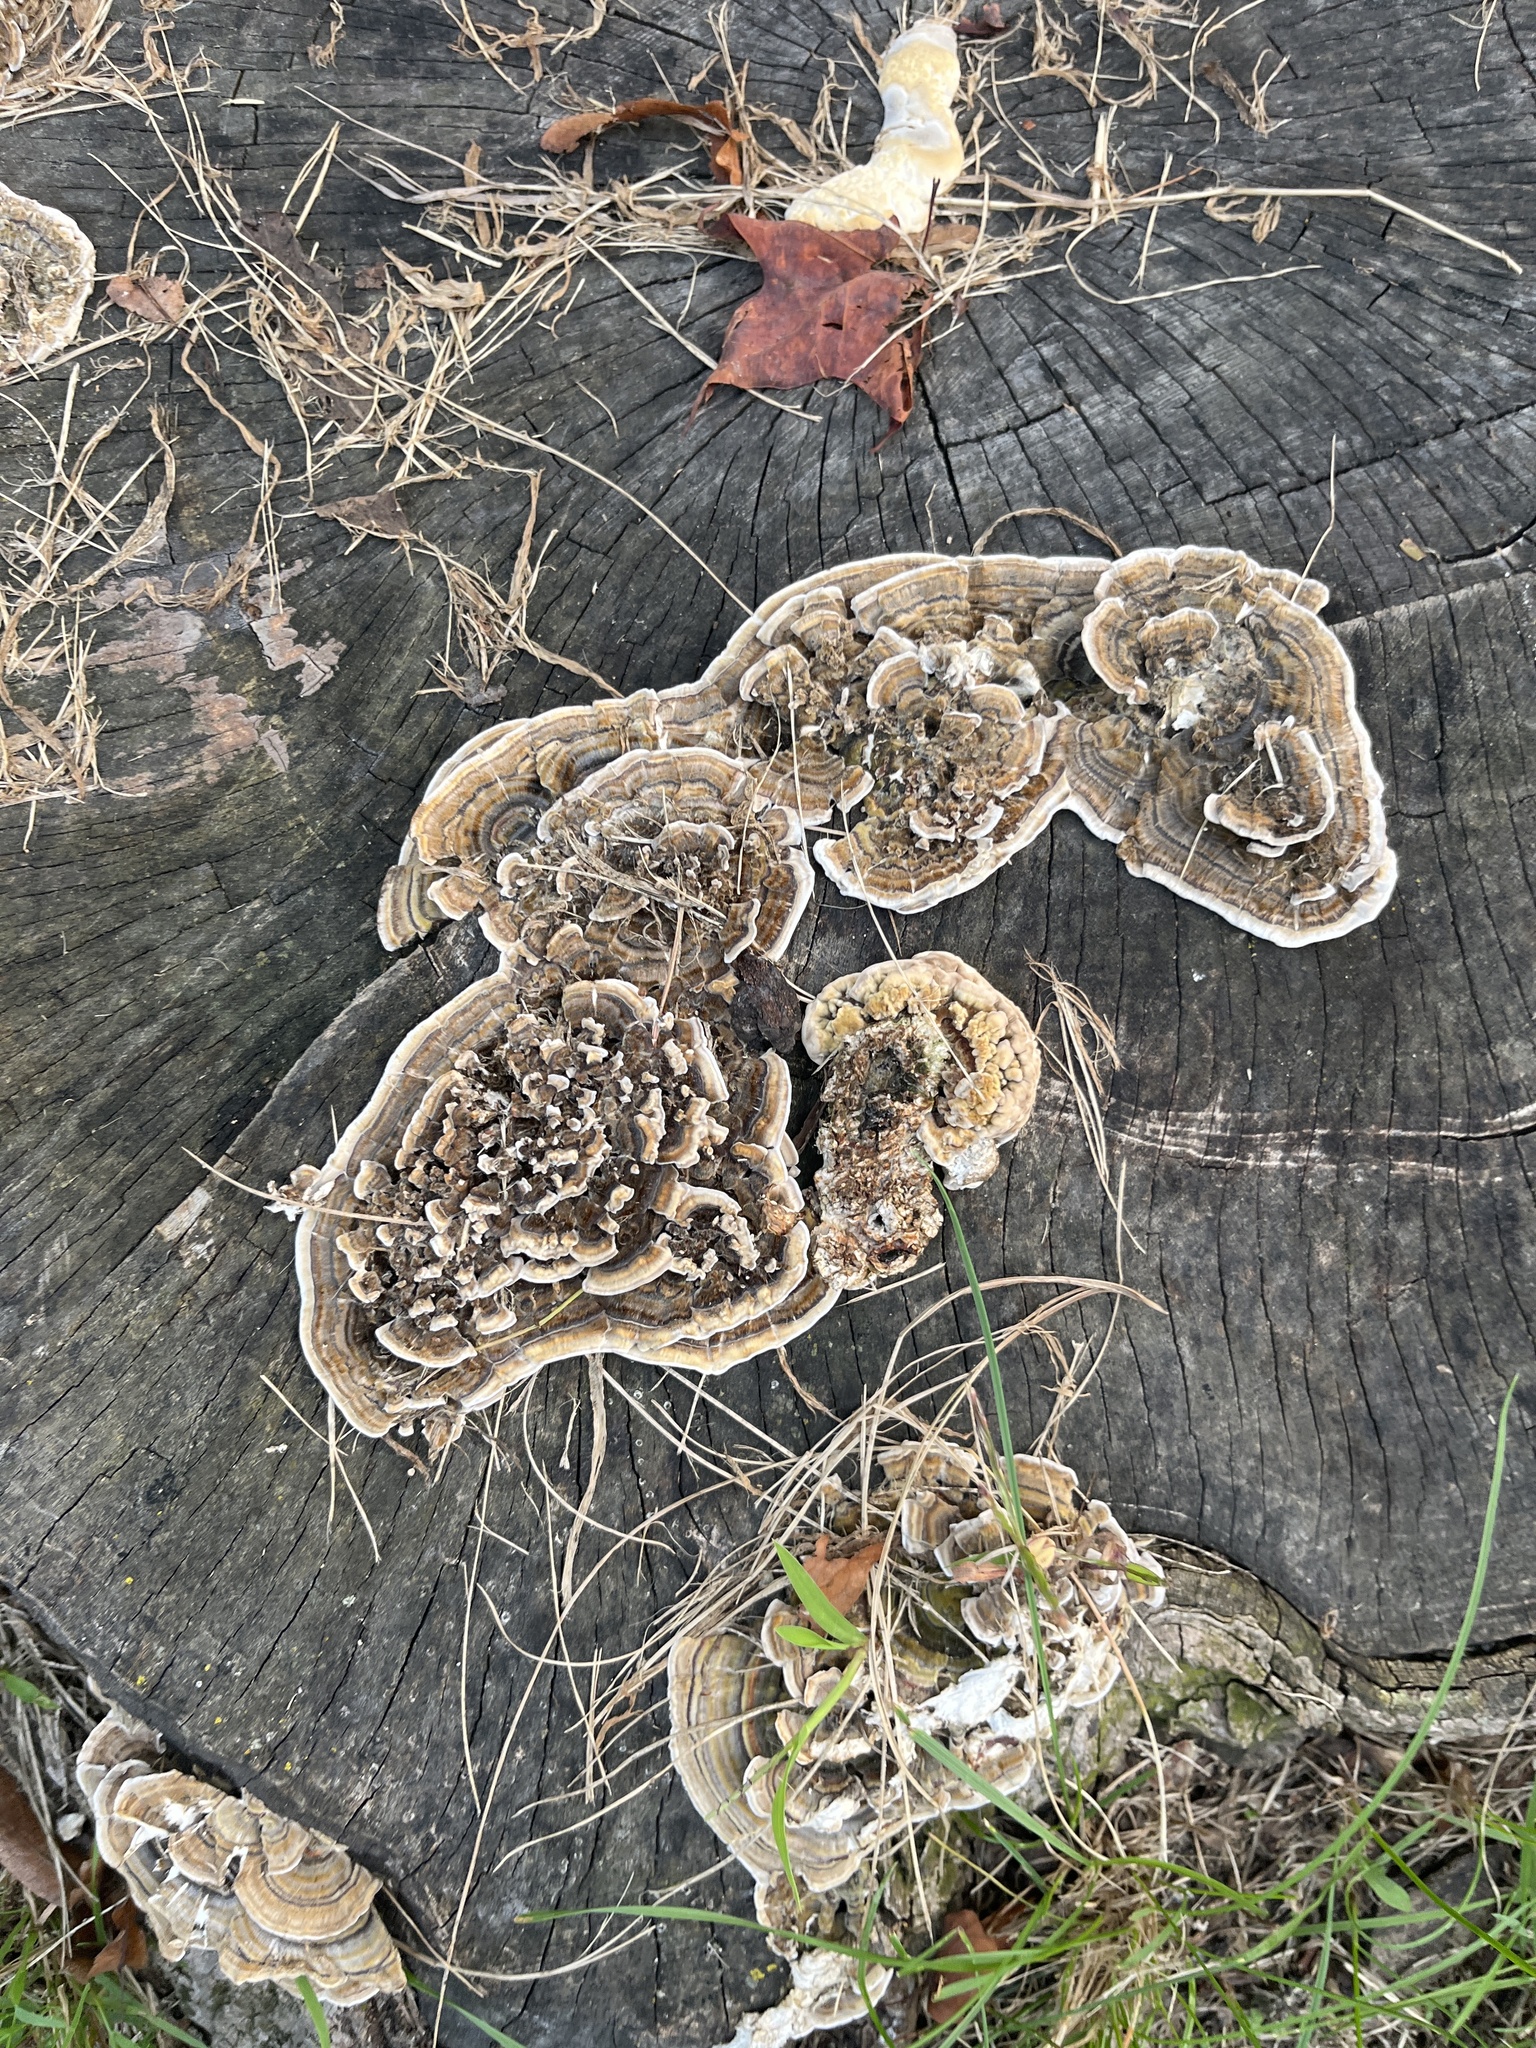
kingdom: Fungi
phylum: Basidiomycota
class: Agaricomycetes
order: Polyporales
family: Polyporaceae
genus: Trametes
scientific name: Trametes versicolor
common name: Turkeytail
